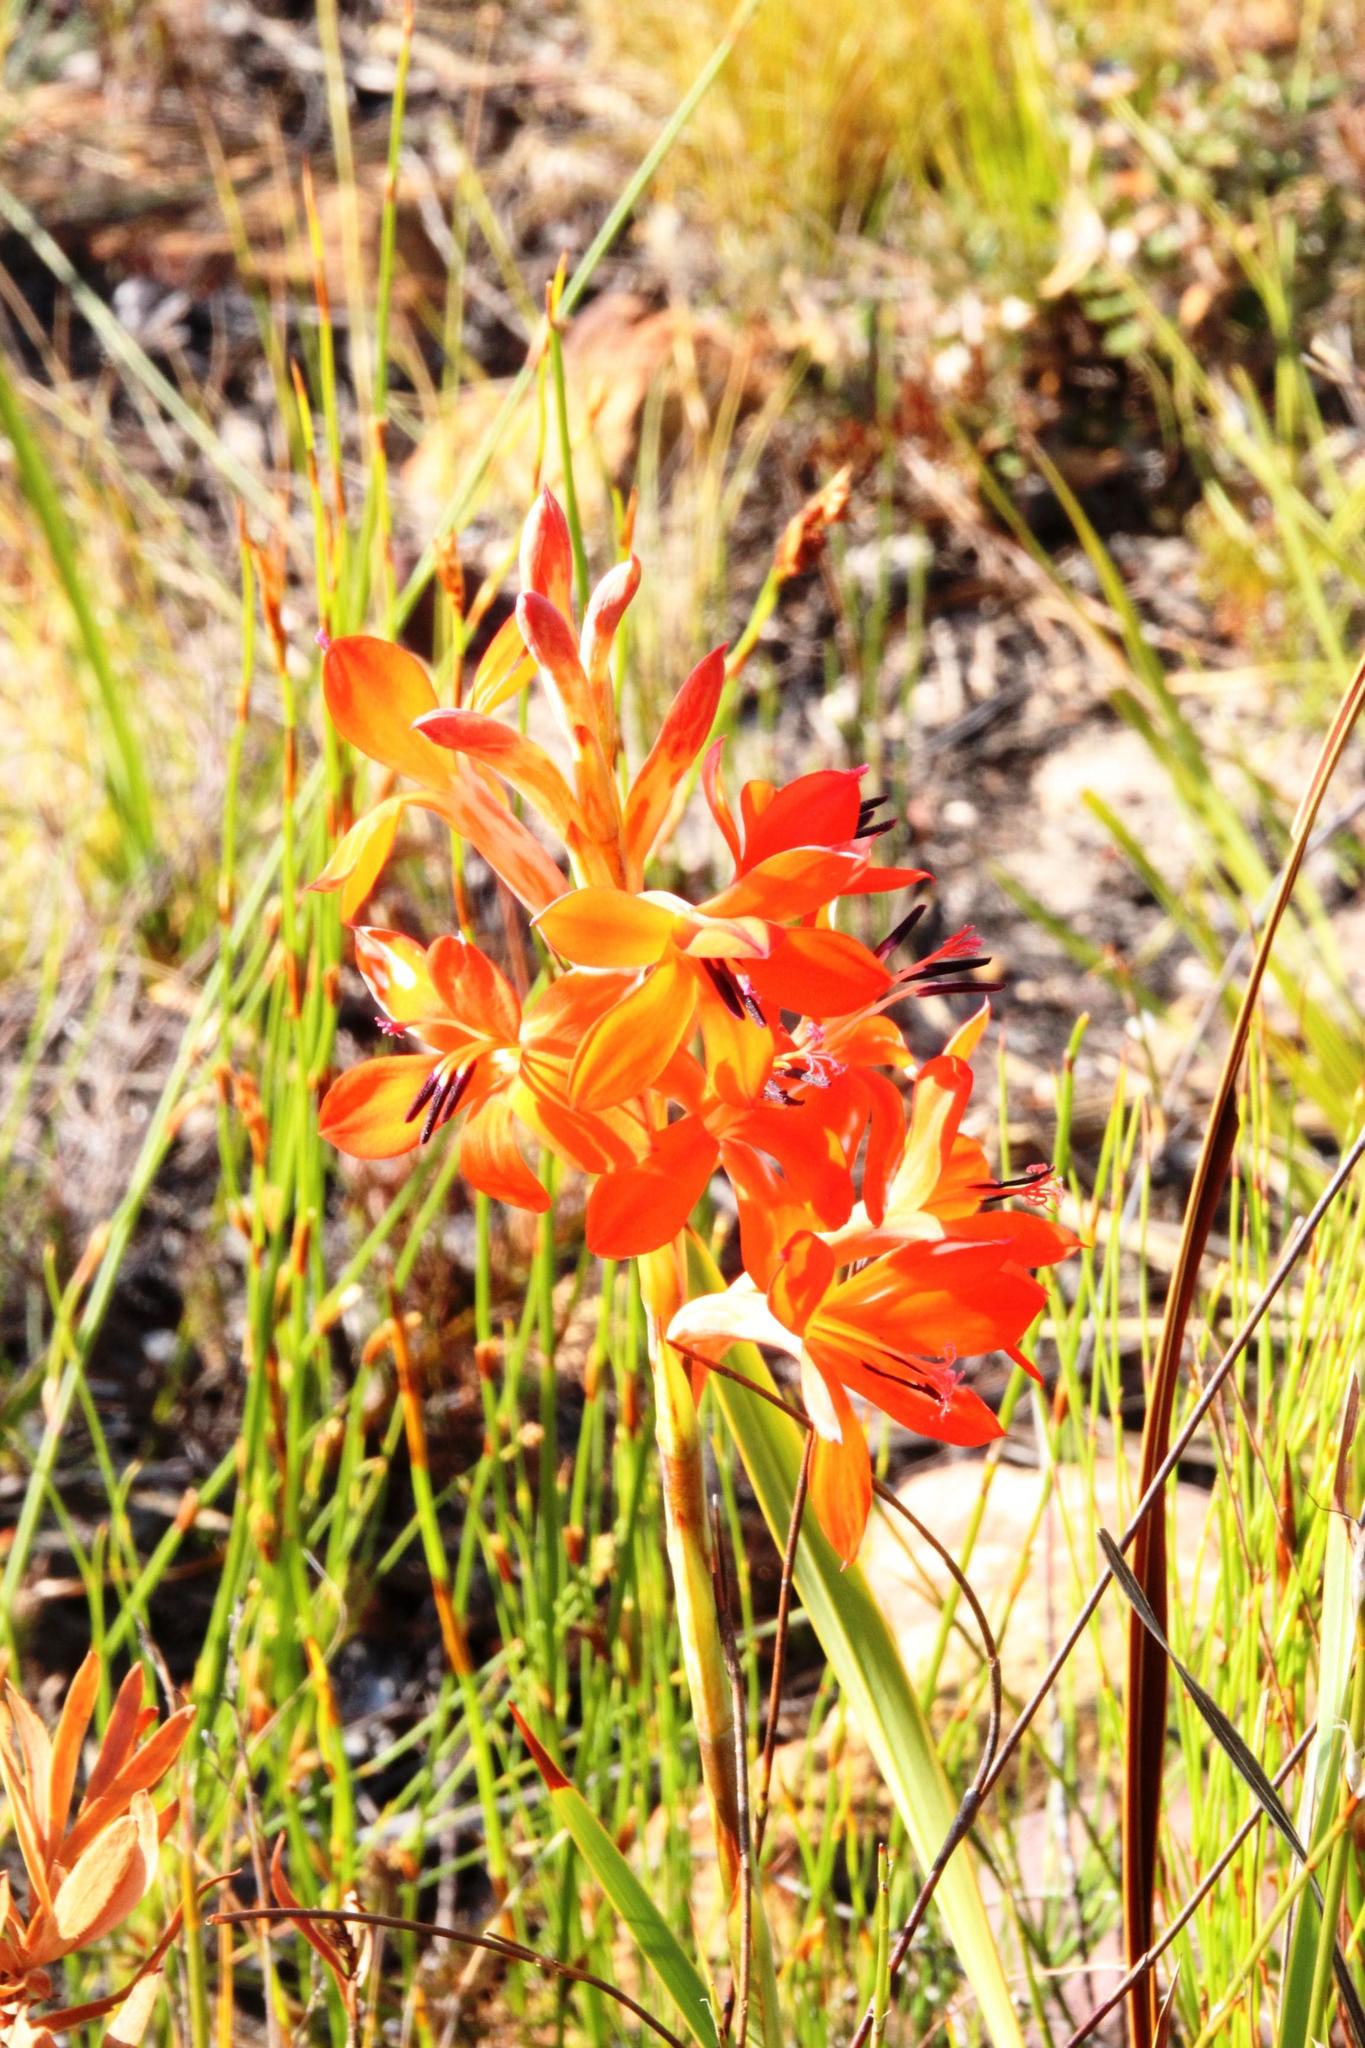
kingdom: Plantae
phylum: Tracheophyta
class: Liliopsida
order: Asparagales
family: Iridaceae
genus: Pillansia
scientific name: Pillansia templemannii
